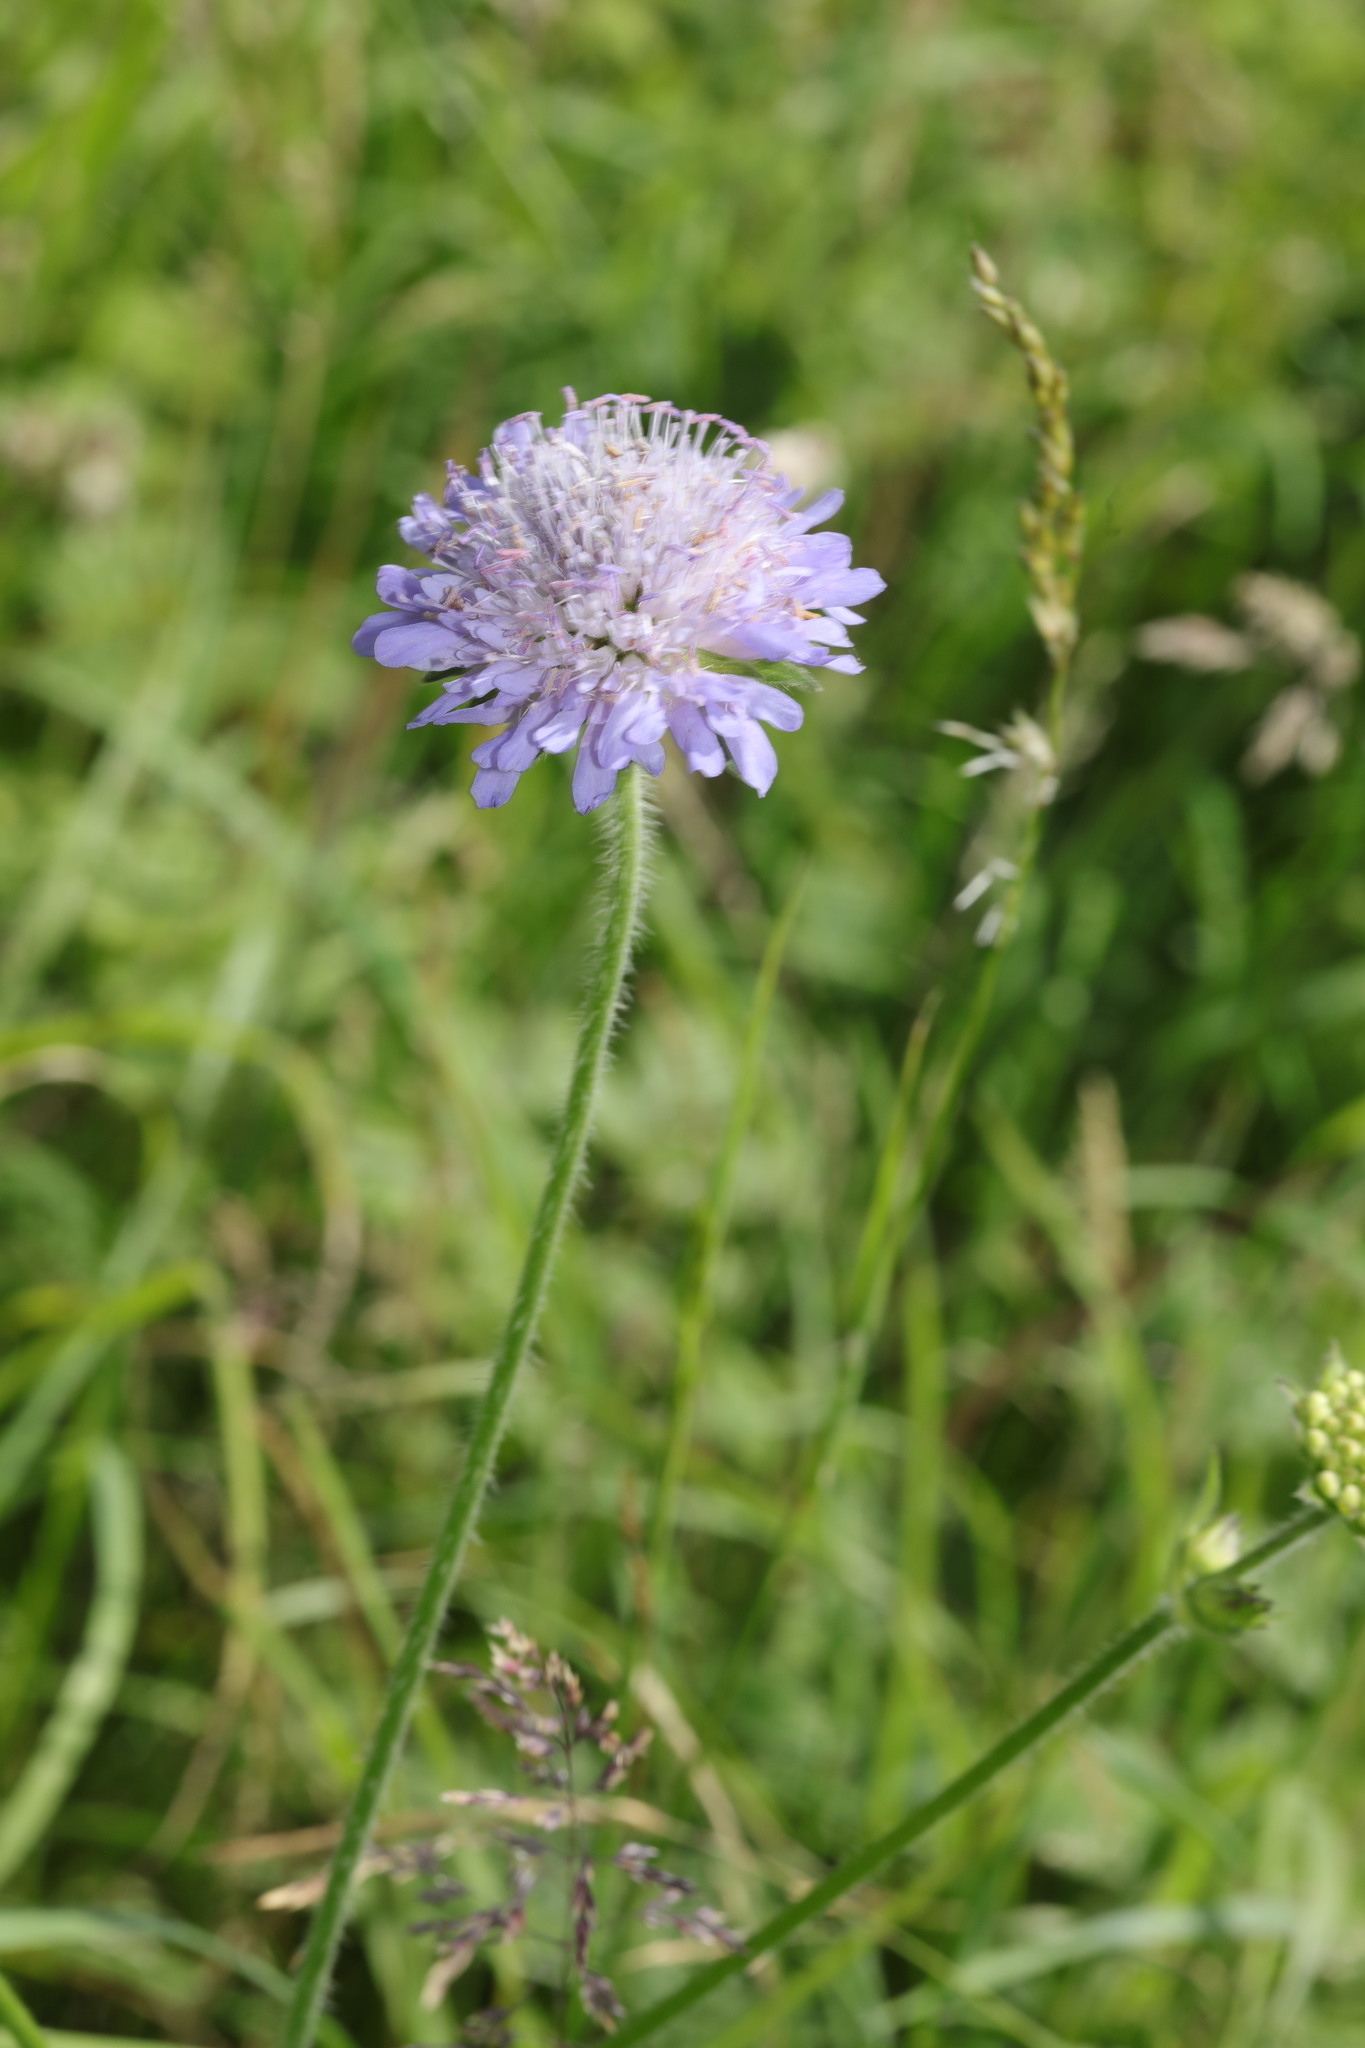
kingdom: Plantae
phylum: Tracheophyta
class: Magnoliopsida
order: Dipsacales
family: Caprifoliaceae
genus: Knautia
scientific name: Knautia arvensis
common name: Field scabiosa
